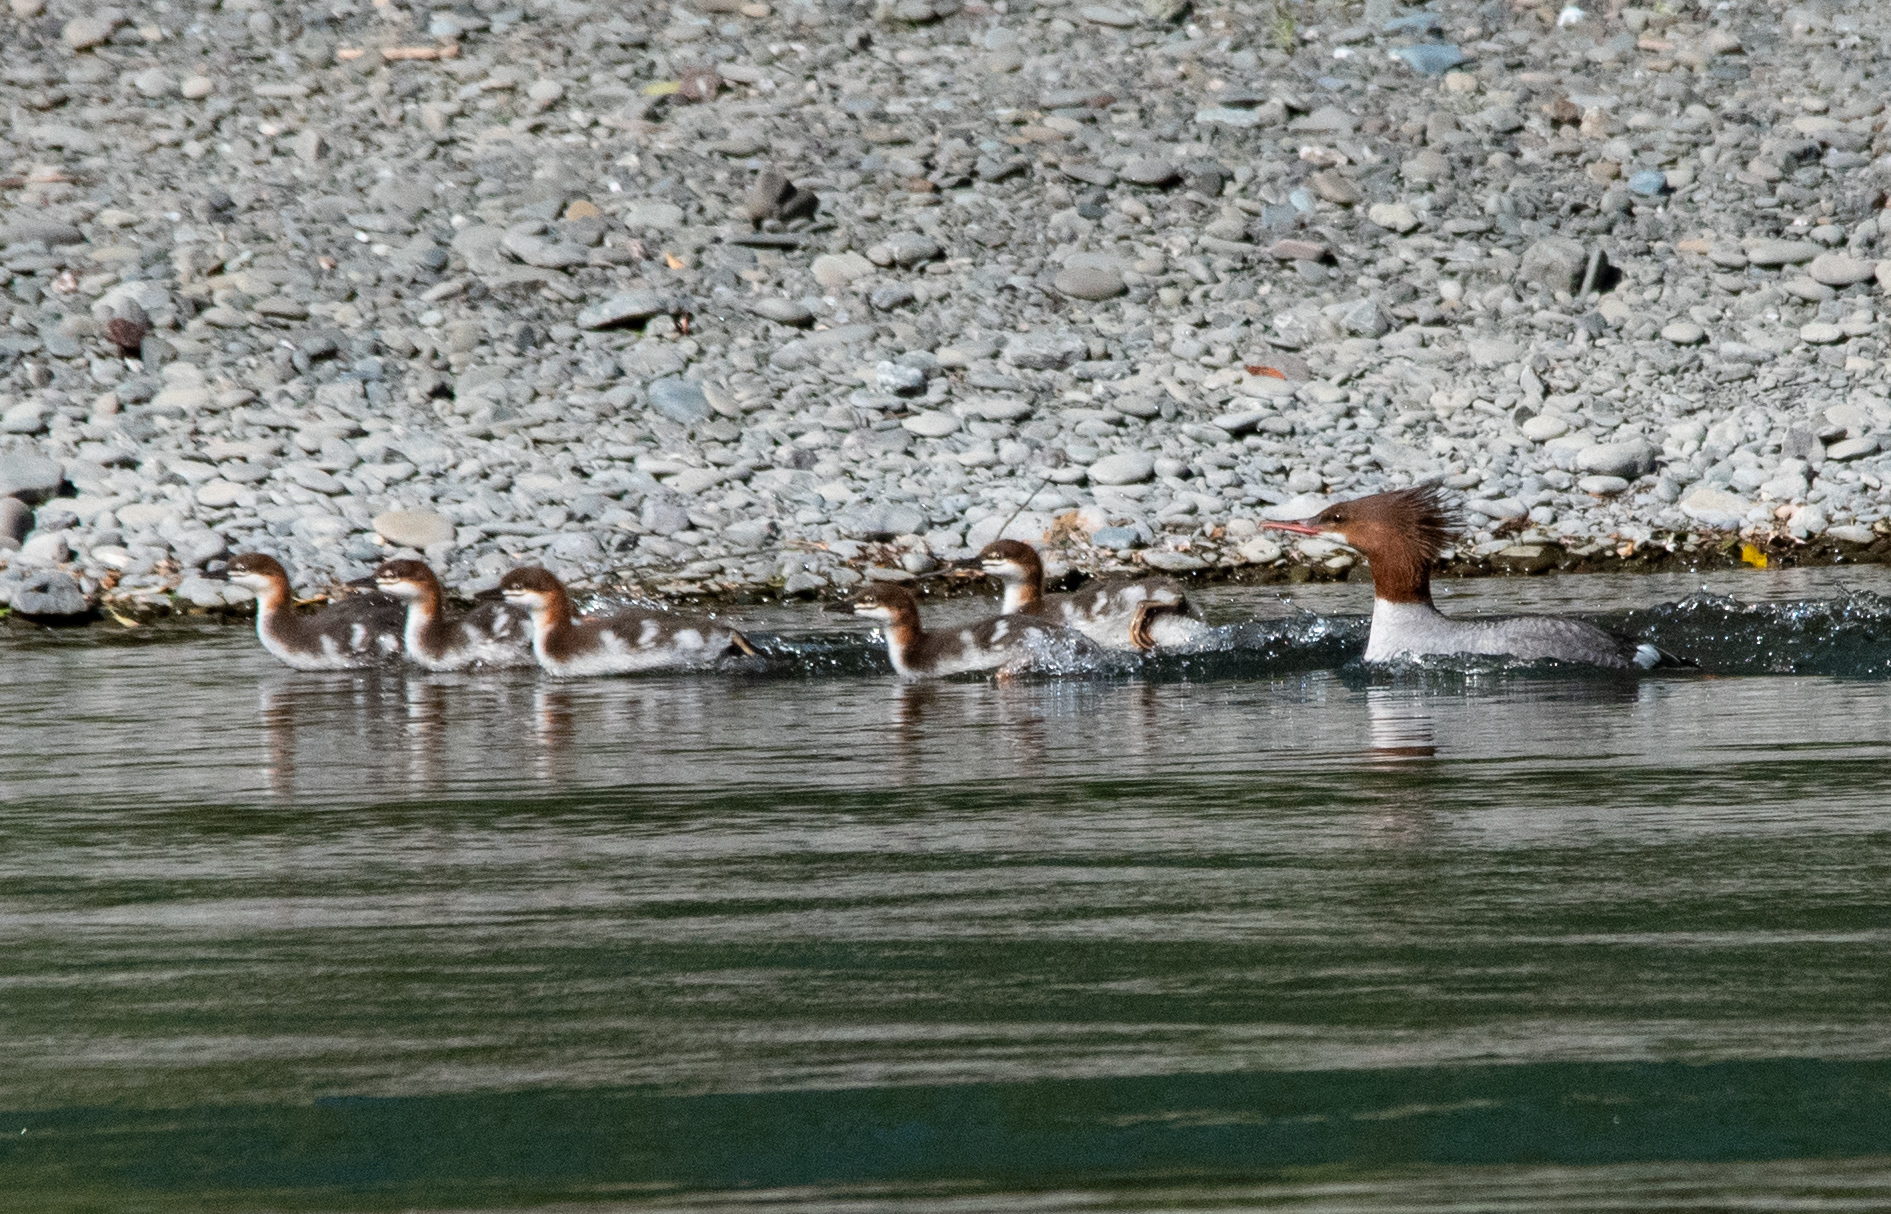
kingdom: Animalia
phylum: Chordata
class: Aves
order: Anseriformes
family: Anatidae
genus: Mergus
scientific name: Mergus merganser
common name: Common merganser
